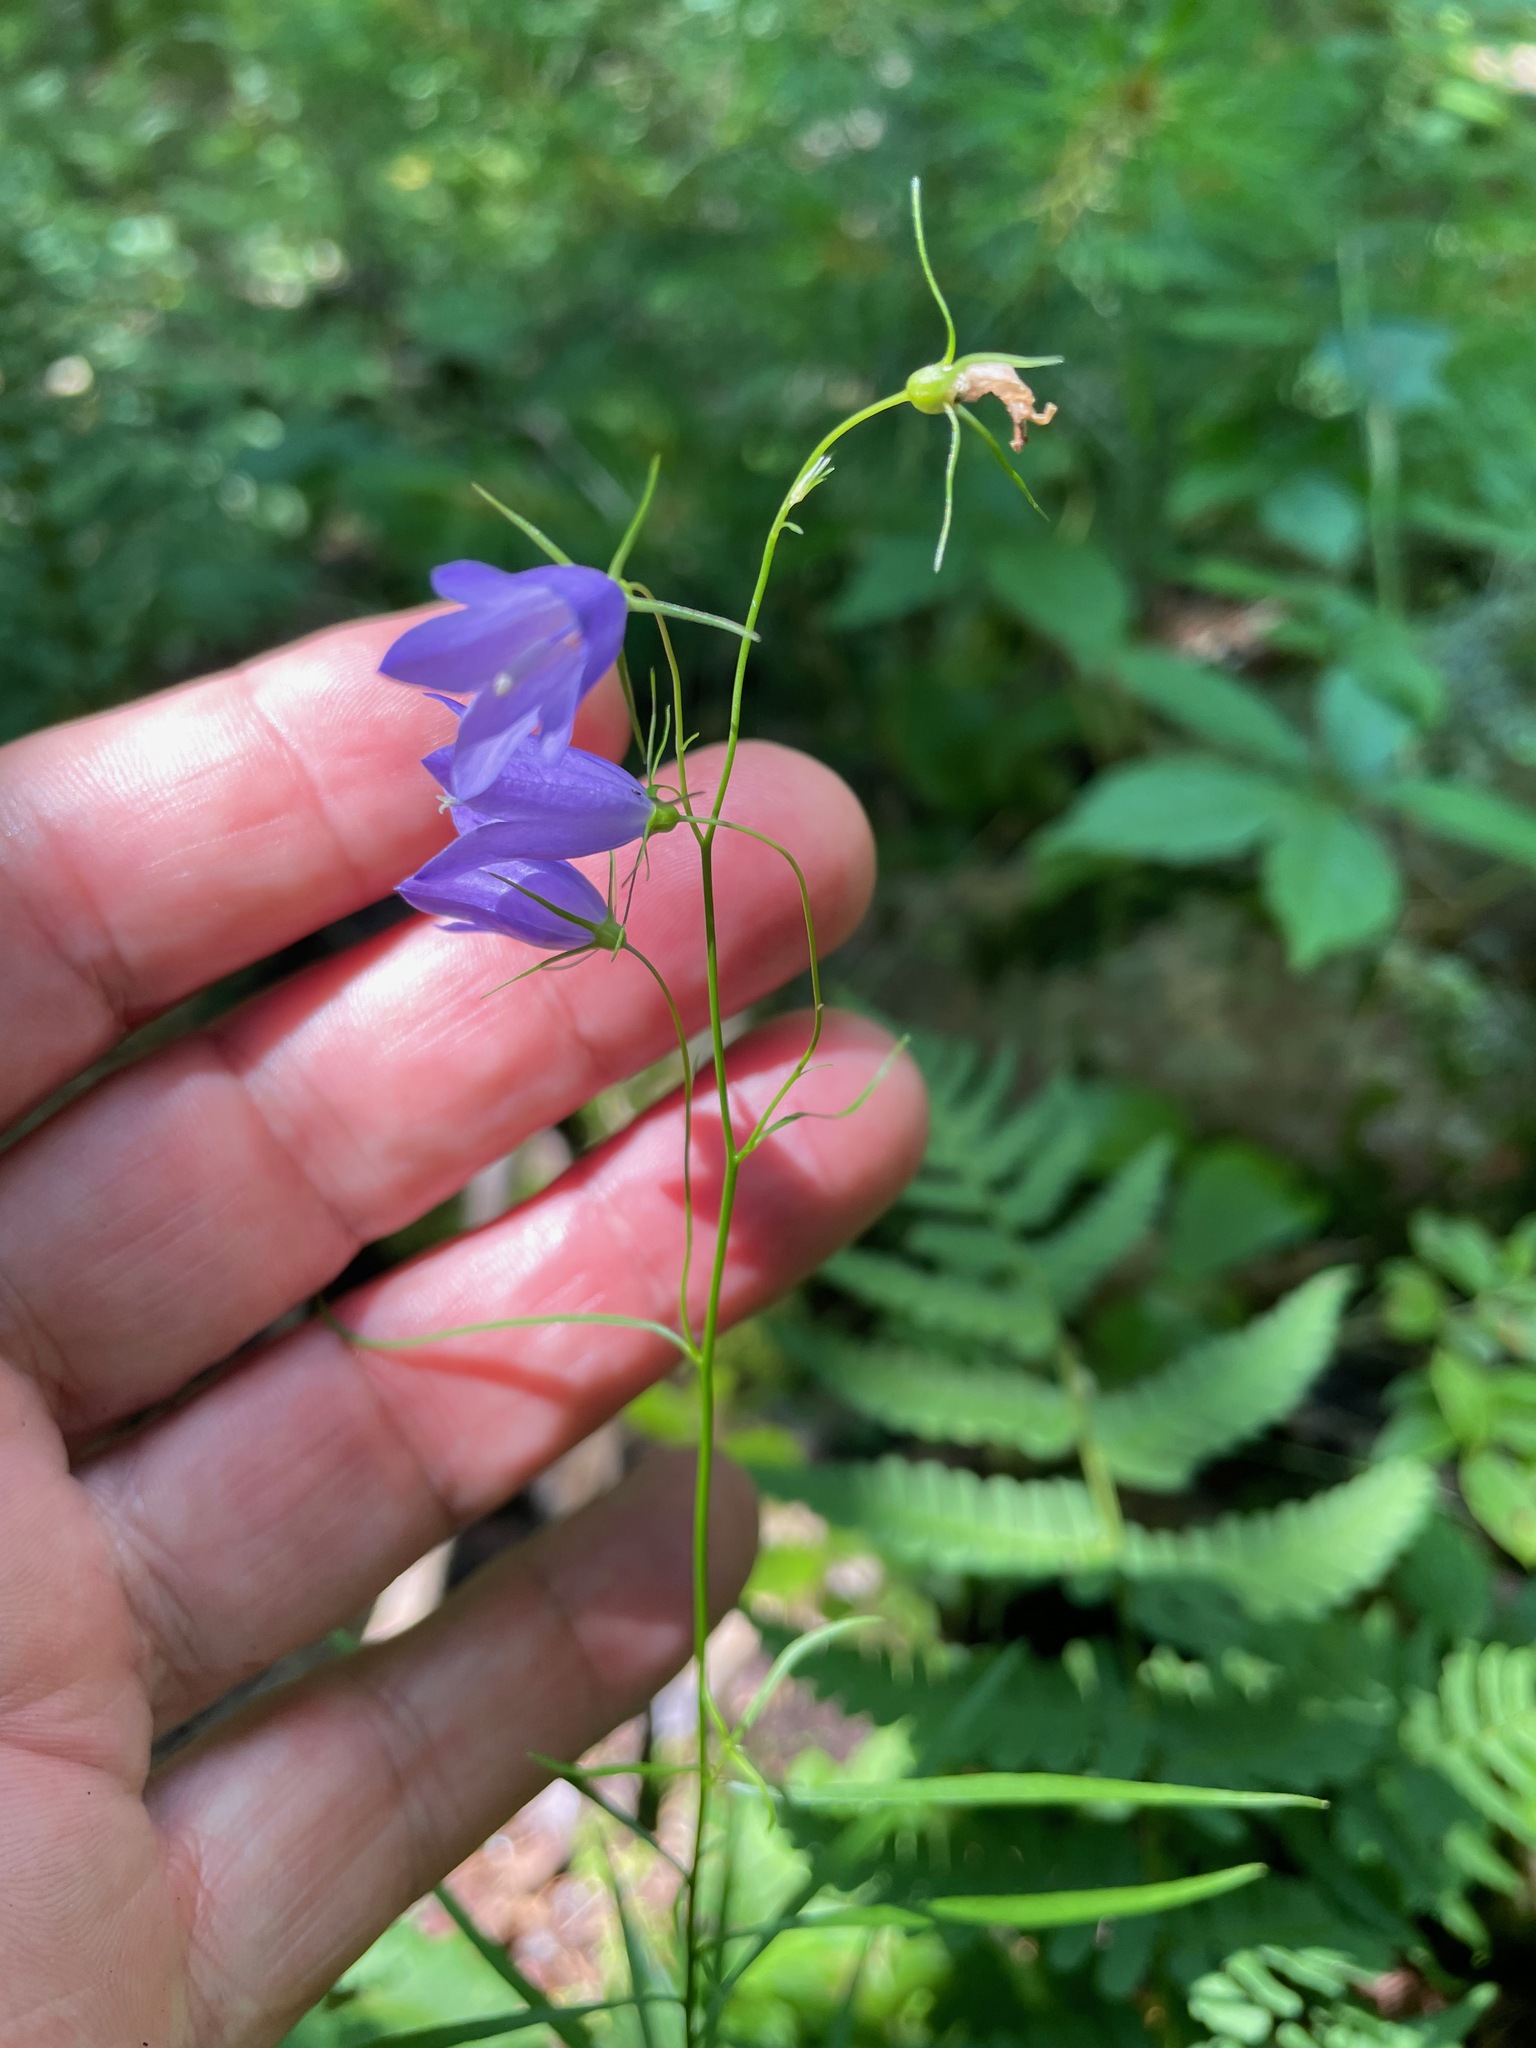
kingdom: Plantae
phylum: Tracheophyta
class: Magnoliopsida
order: Asterales
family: Campanulaceae
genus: Campanula
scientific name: Campanula intercedens
